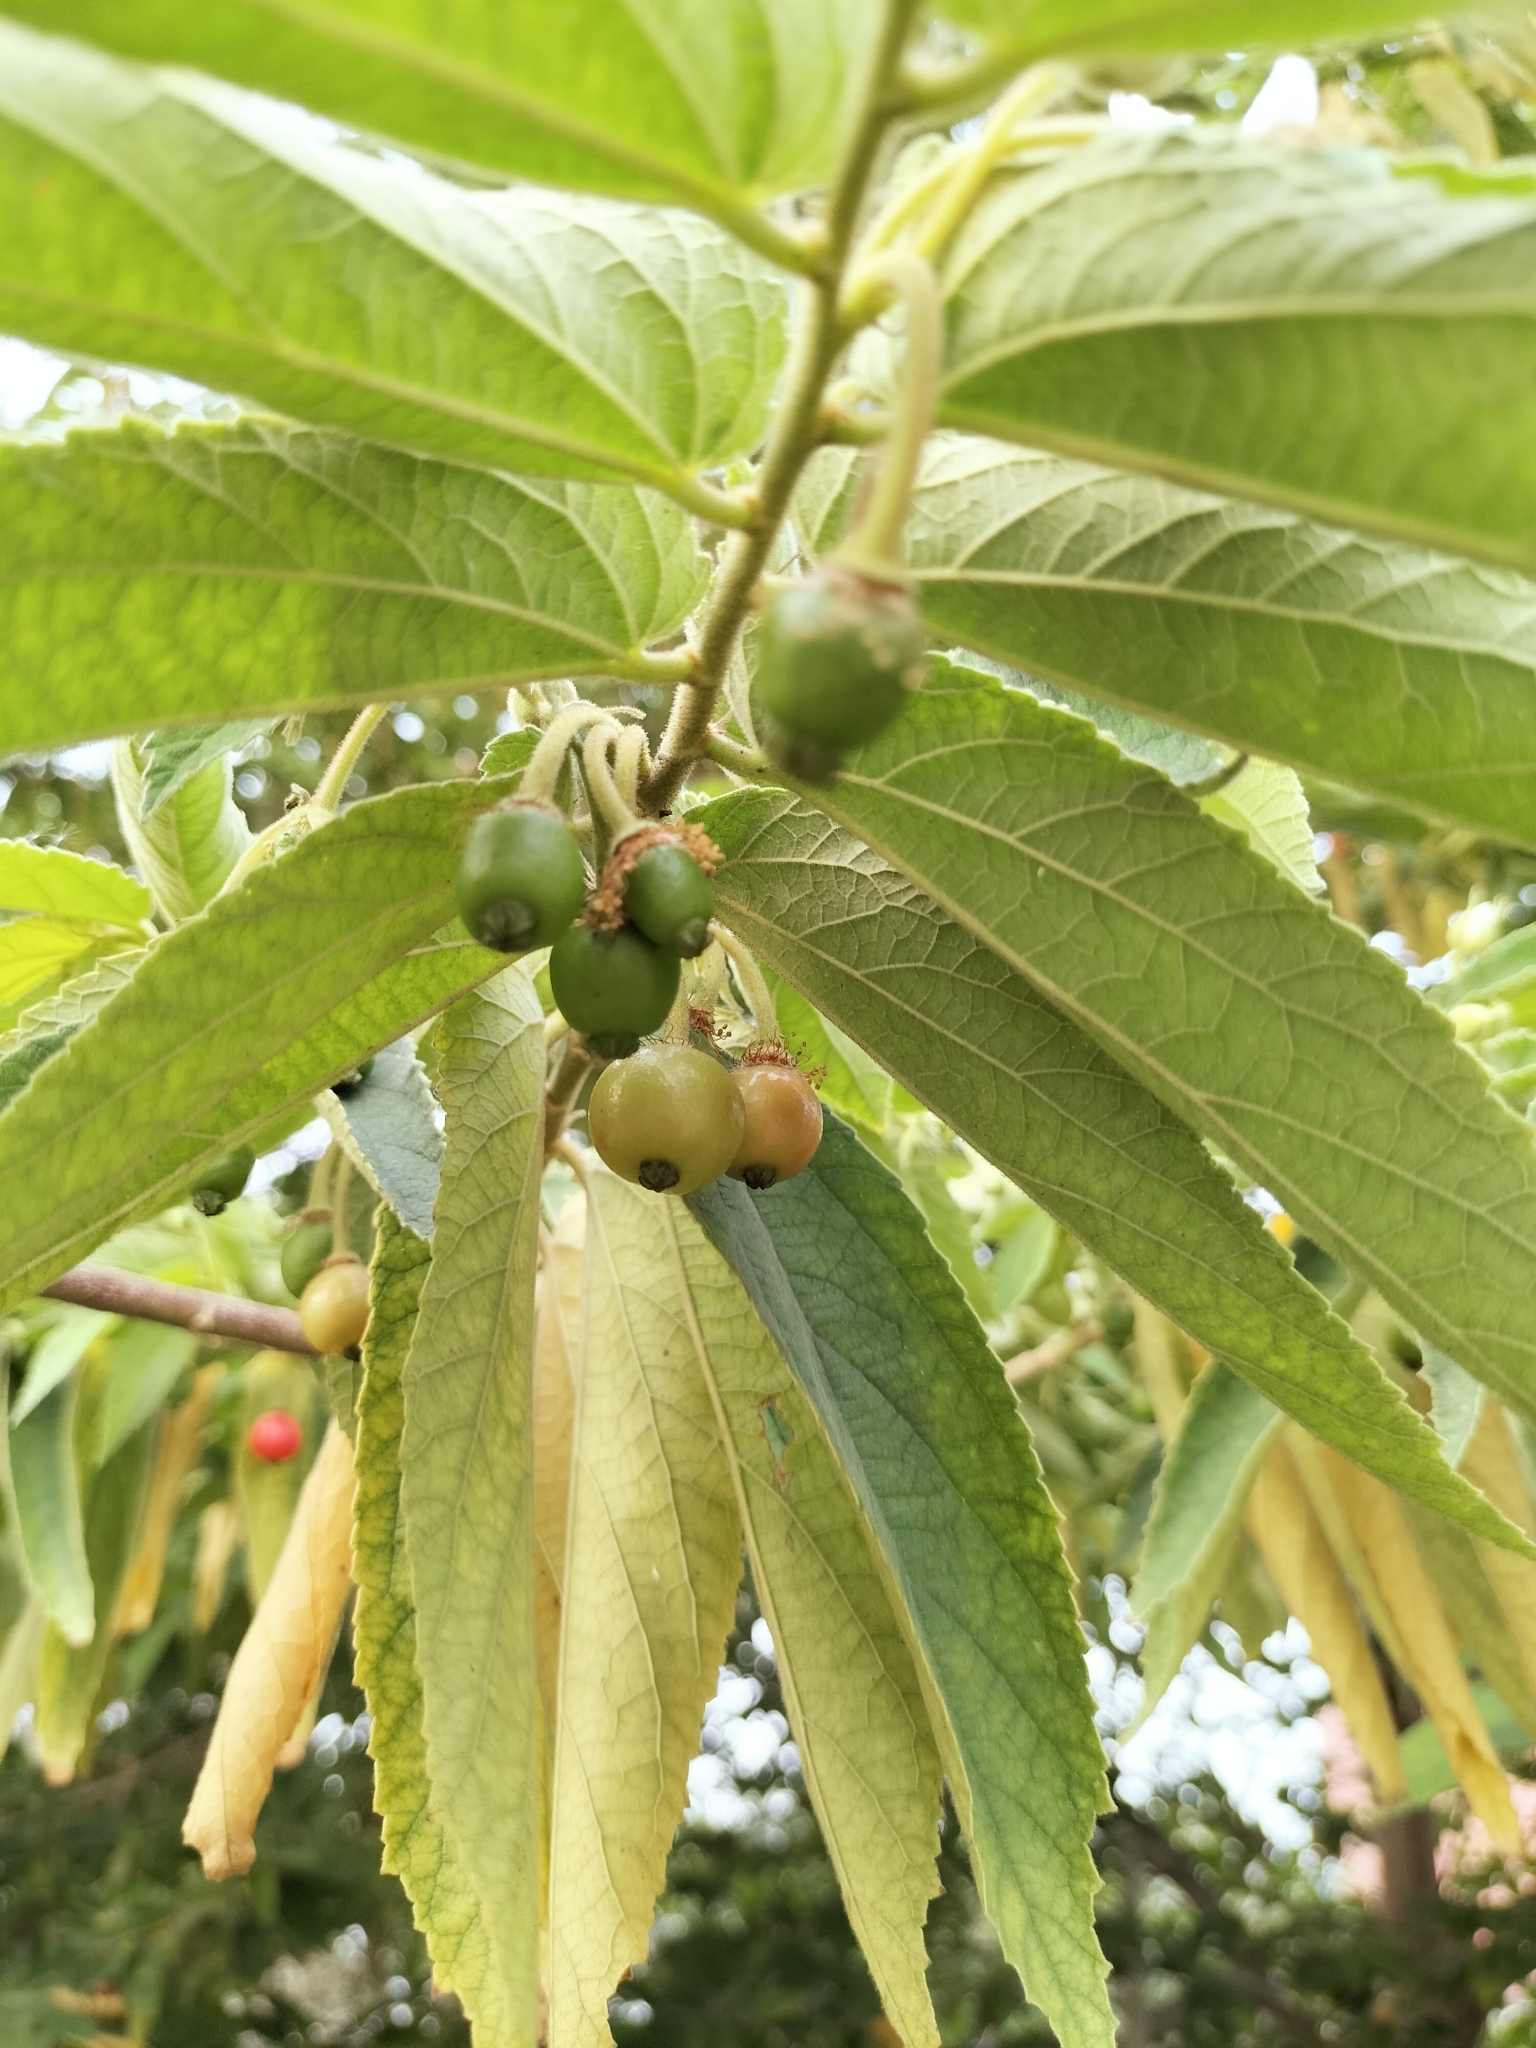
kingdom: Plantae
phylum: Tracheophyta
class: Magnoliopsida
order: Malvales
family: Muntingiaceae
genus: Muntingia
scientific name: Muntingia calabura
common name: Strawberrytree
